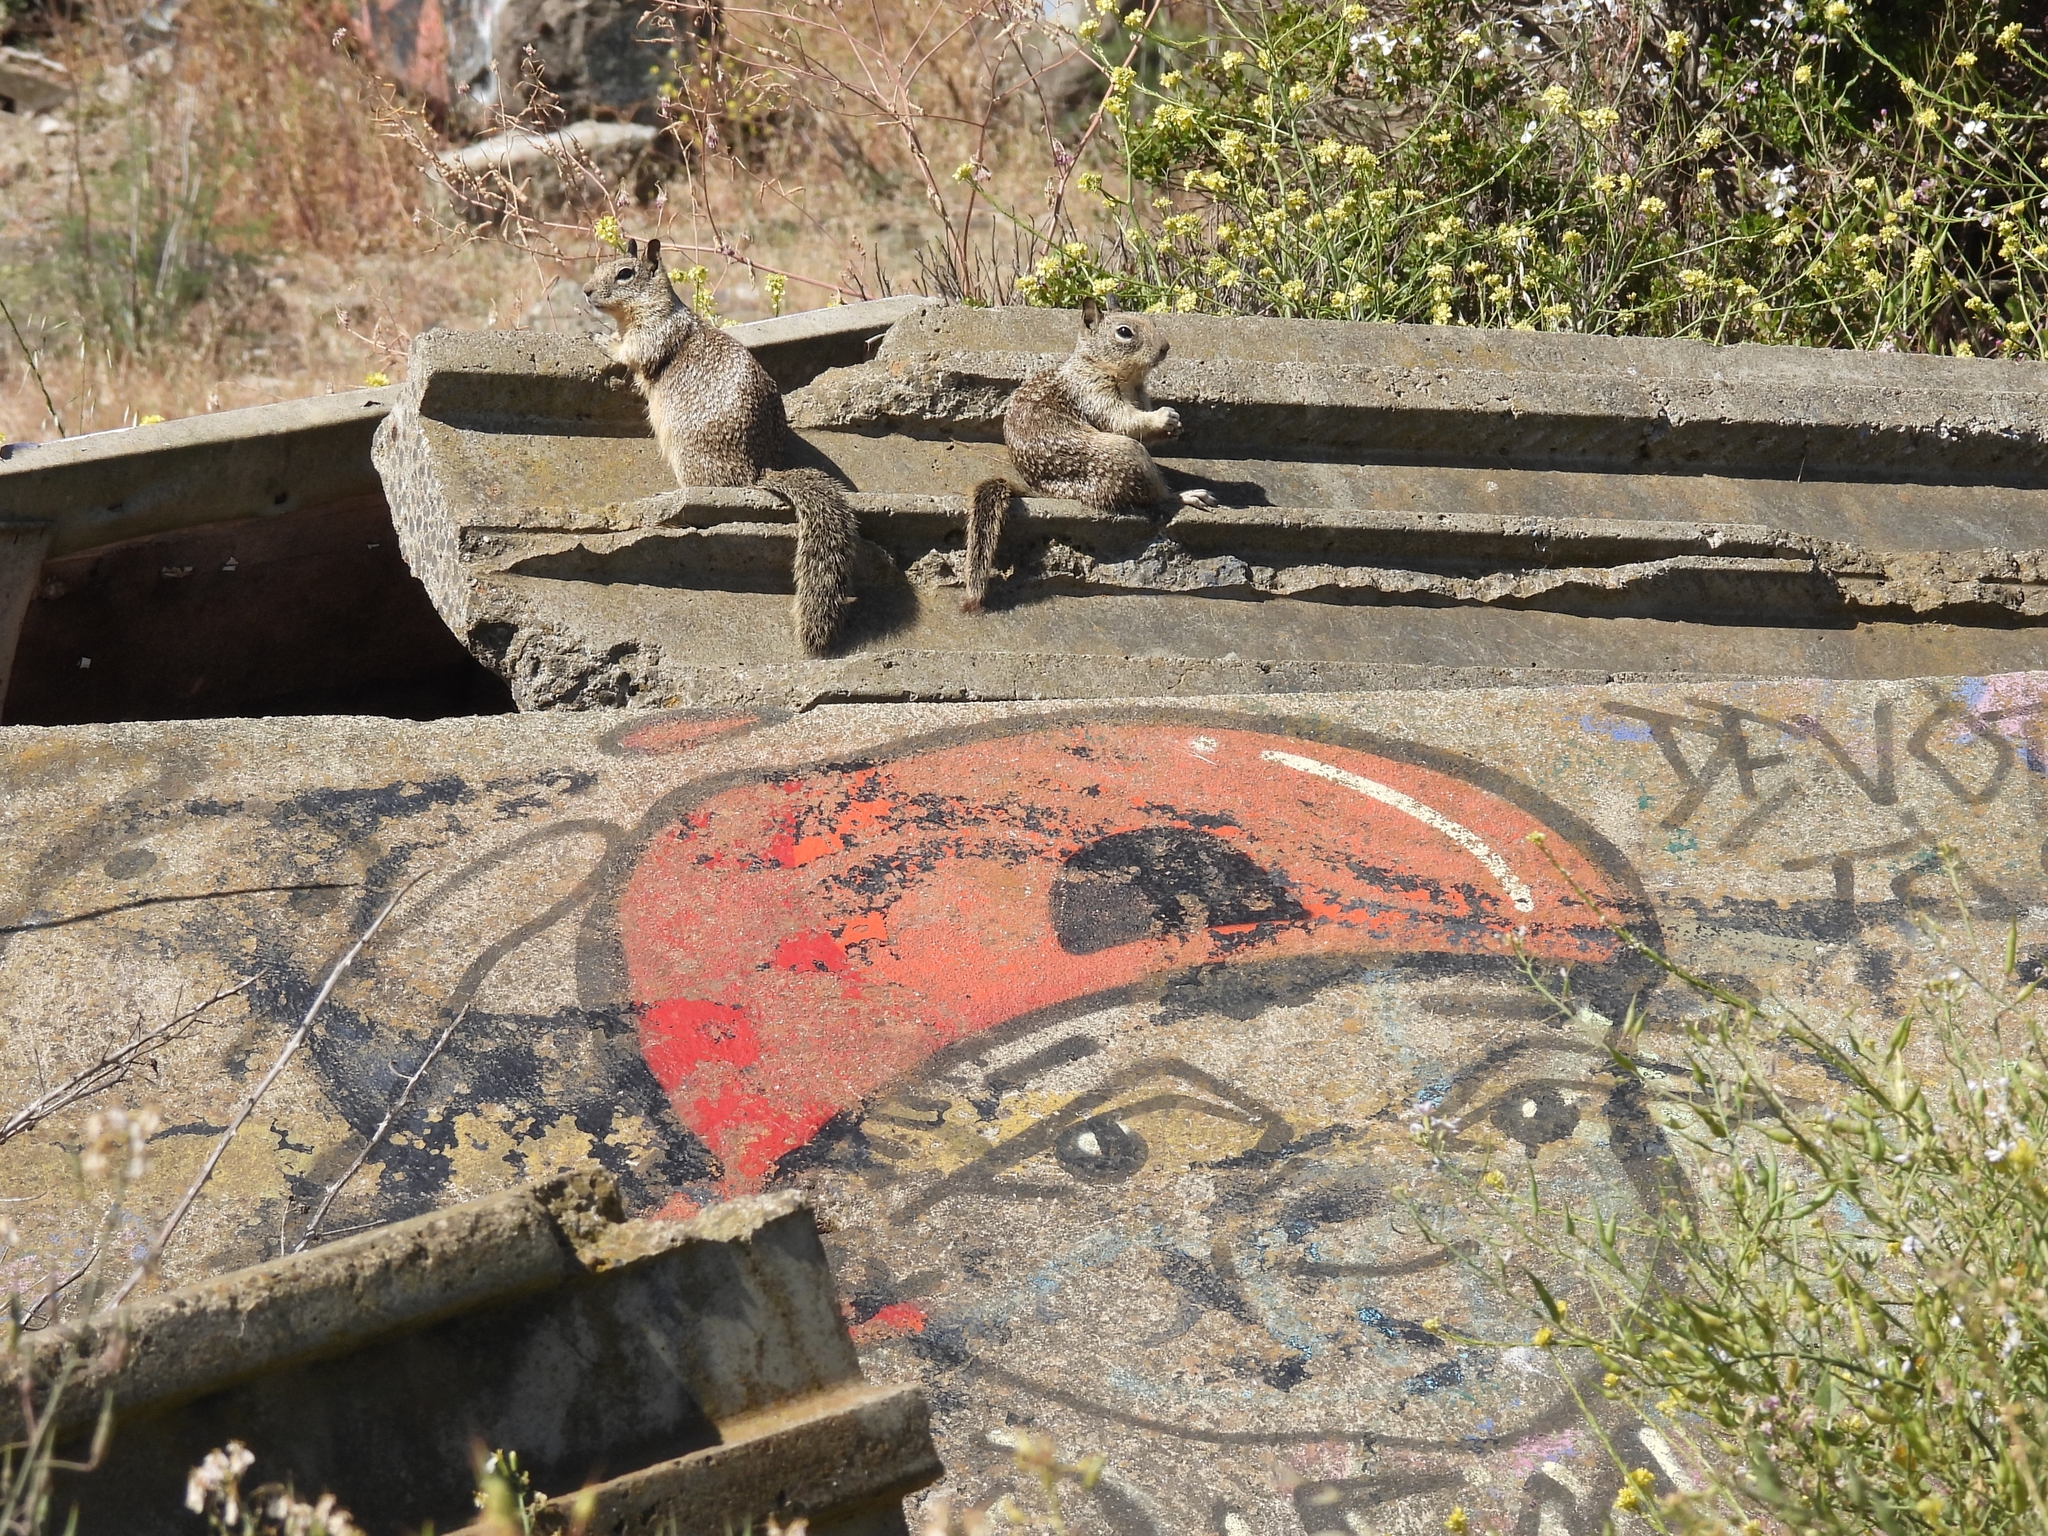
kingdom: Animalia
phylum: Chordata
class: Mammalia
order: Rodentia
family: Sciuridae
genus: Otospermophilus
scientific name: Otospermophilus beecheyi
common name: California ground squirrel
